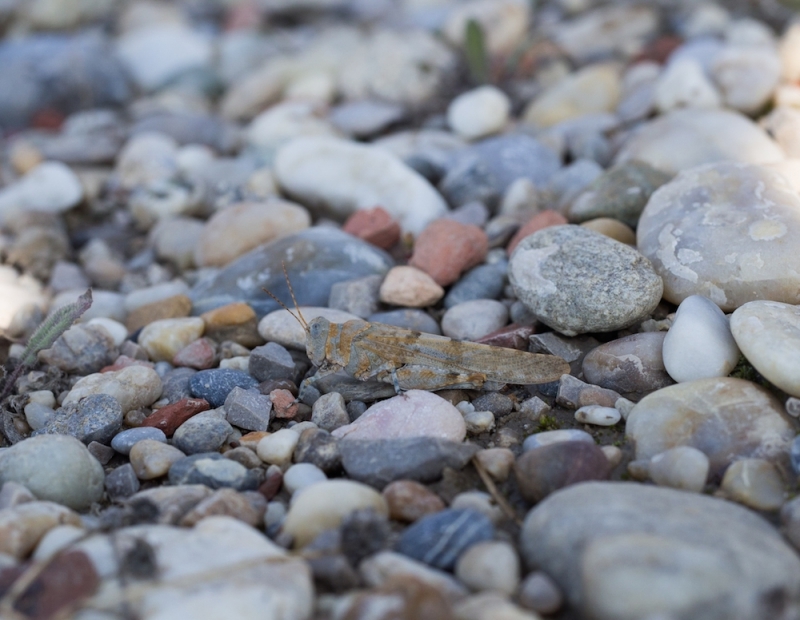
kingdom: Animalia
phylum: Arthropoda
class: Insecta
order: Orthoptera
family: Acrididae
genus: Sphingonotus
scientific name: Sphingonotus caerulans
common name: Blue-winged locust
